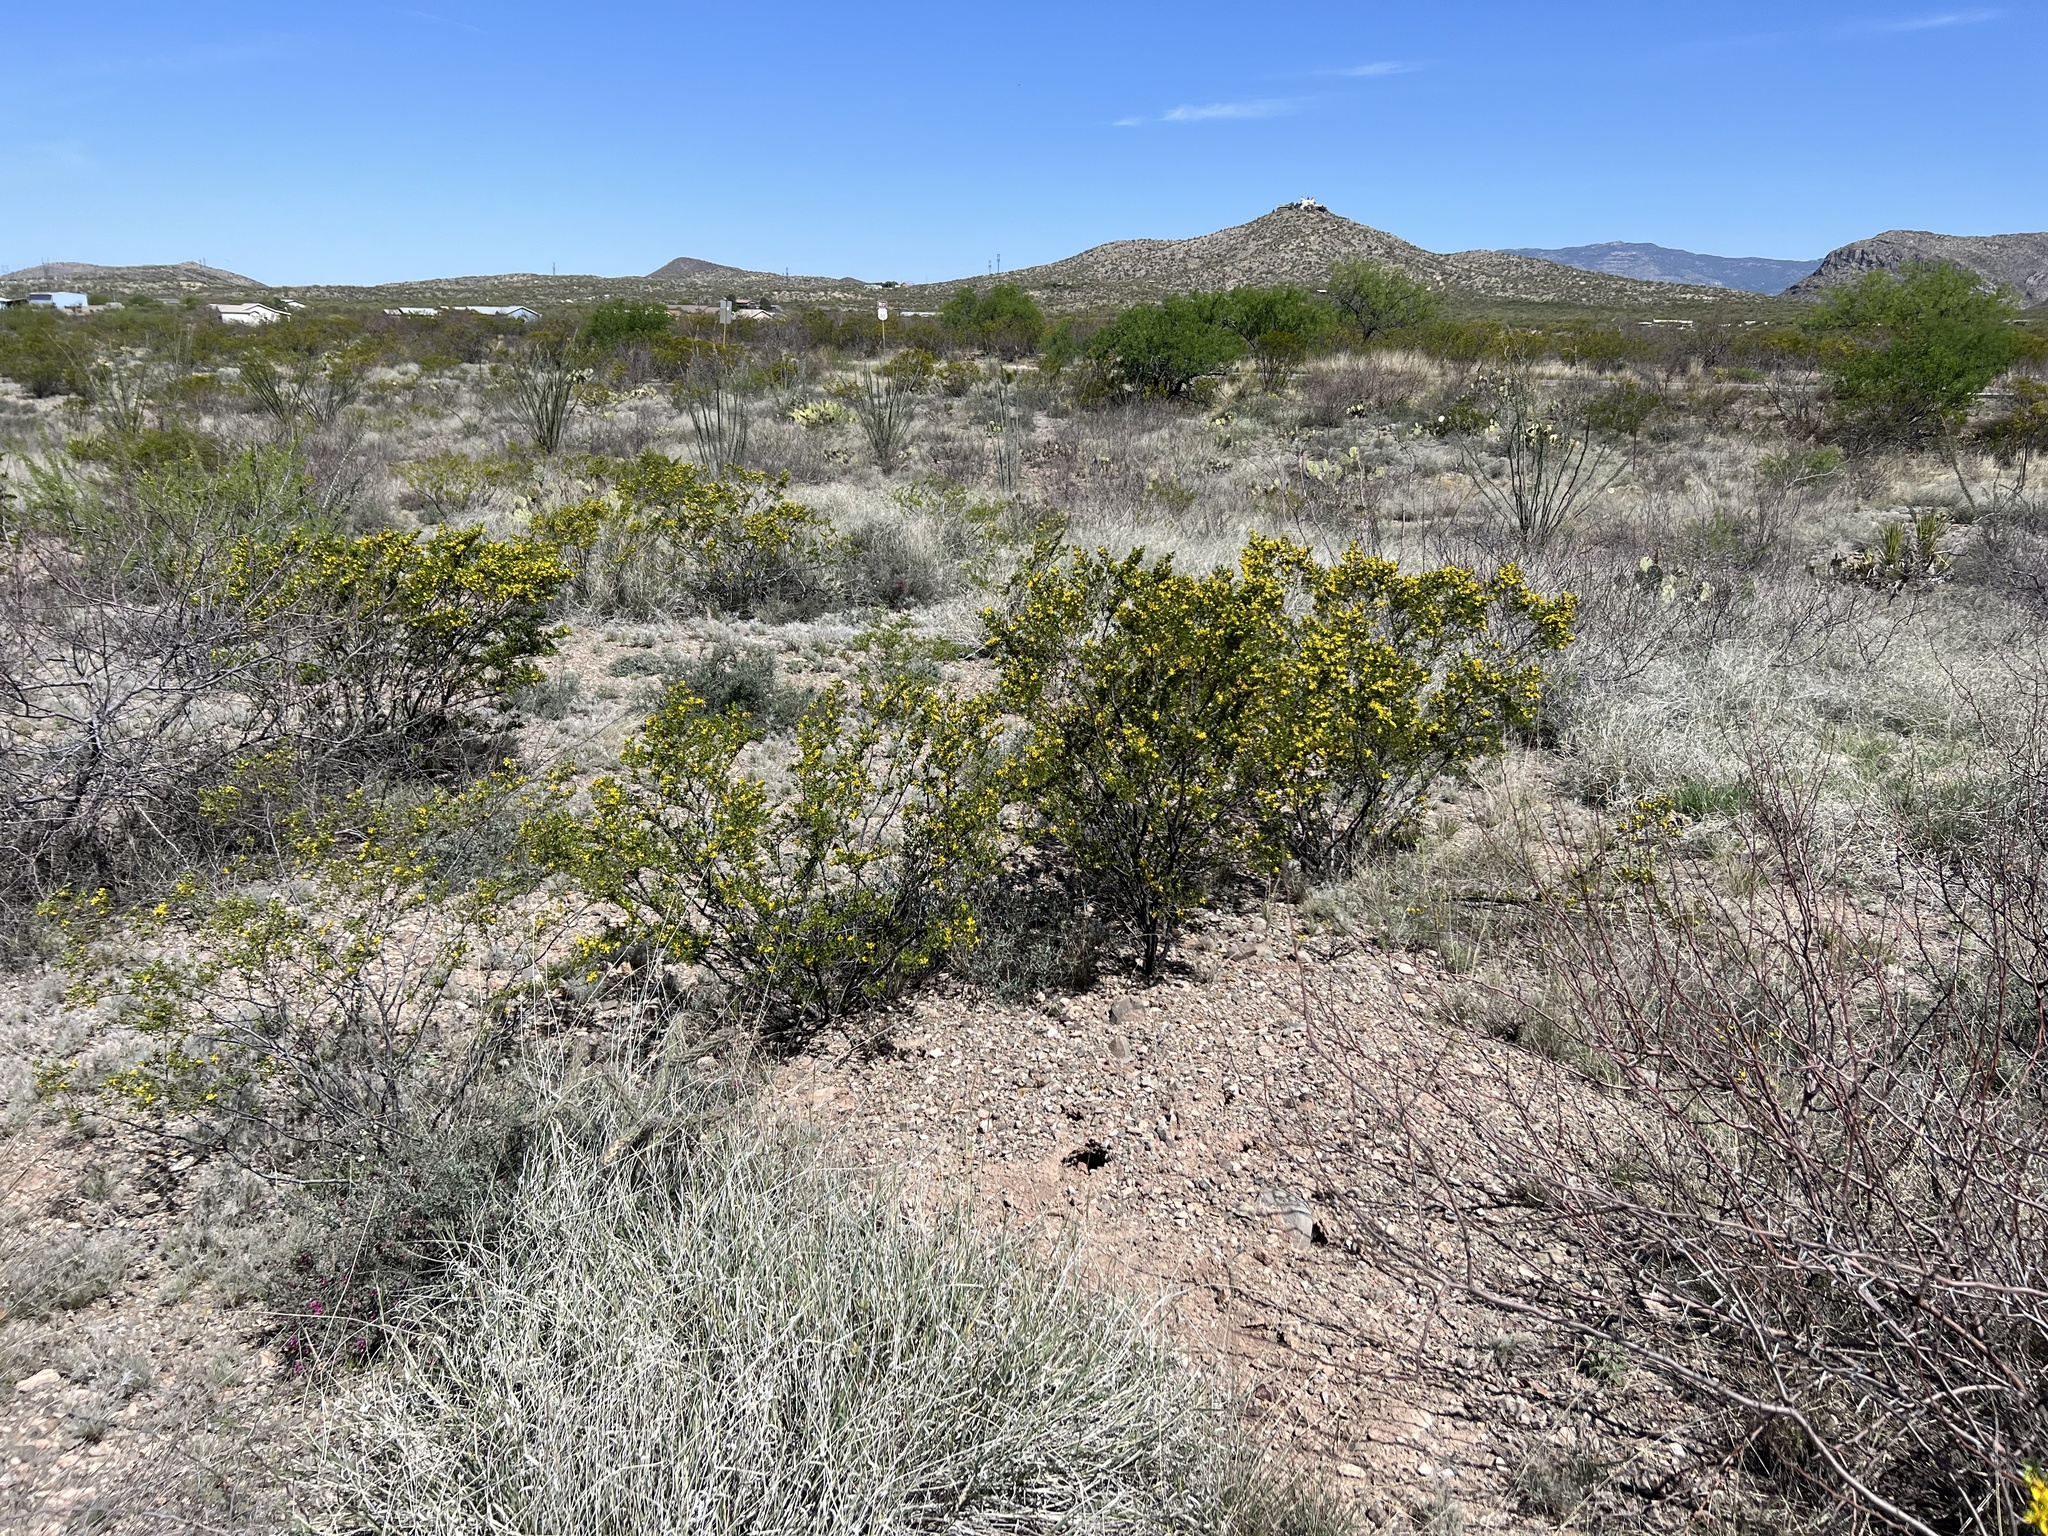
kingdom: Plantae
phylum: Tracheophyta
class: Magnoliopsida
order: Zygophyllales
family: Zygophyllaceae
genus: Larrea
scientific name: Larrea tridentata
